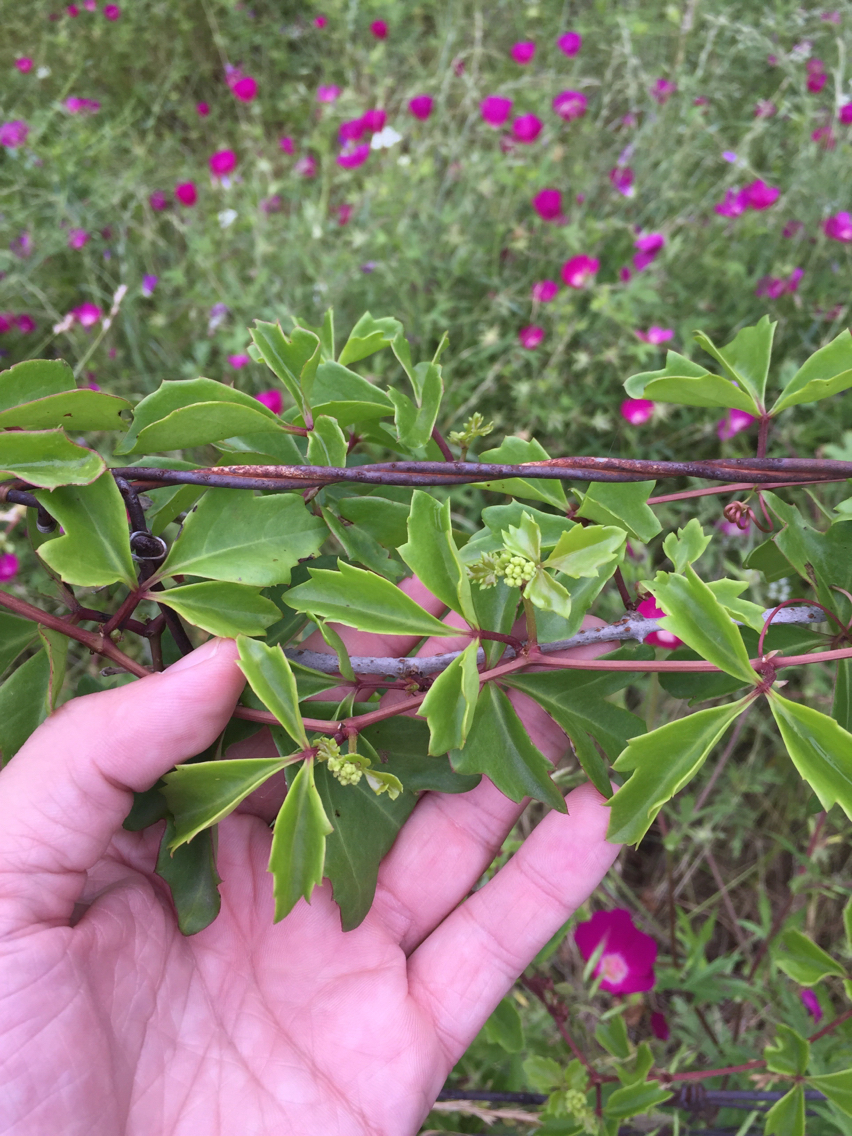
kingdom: Plantae
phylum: Tracheophyta
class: Magnoliopsida
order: Vitales
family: Vitaceae
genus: Cissus
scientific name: Cissus trifoliata
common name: Vine-sorrel
